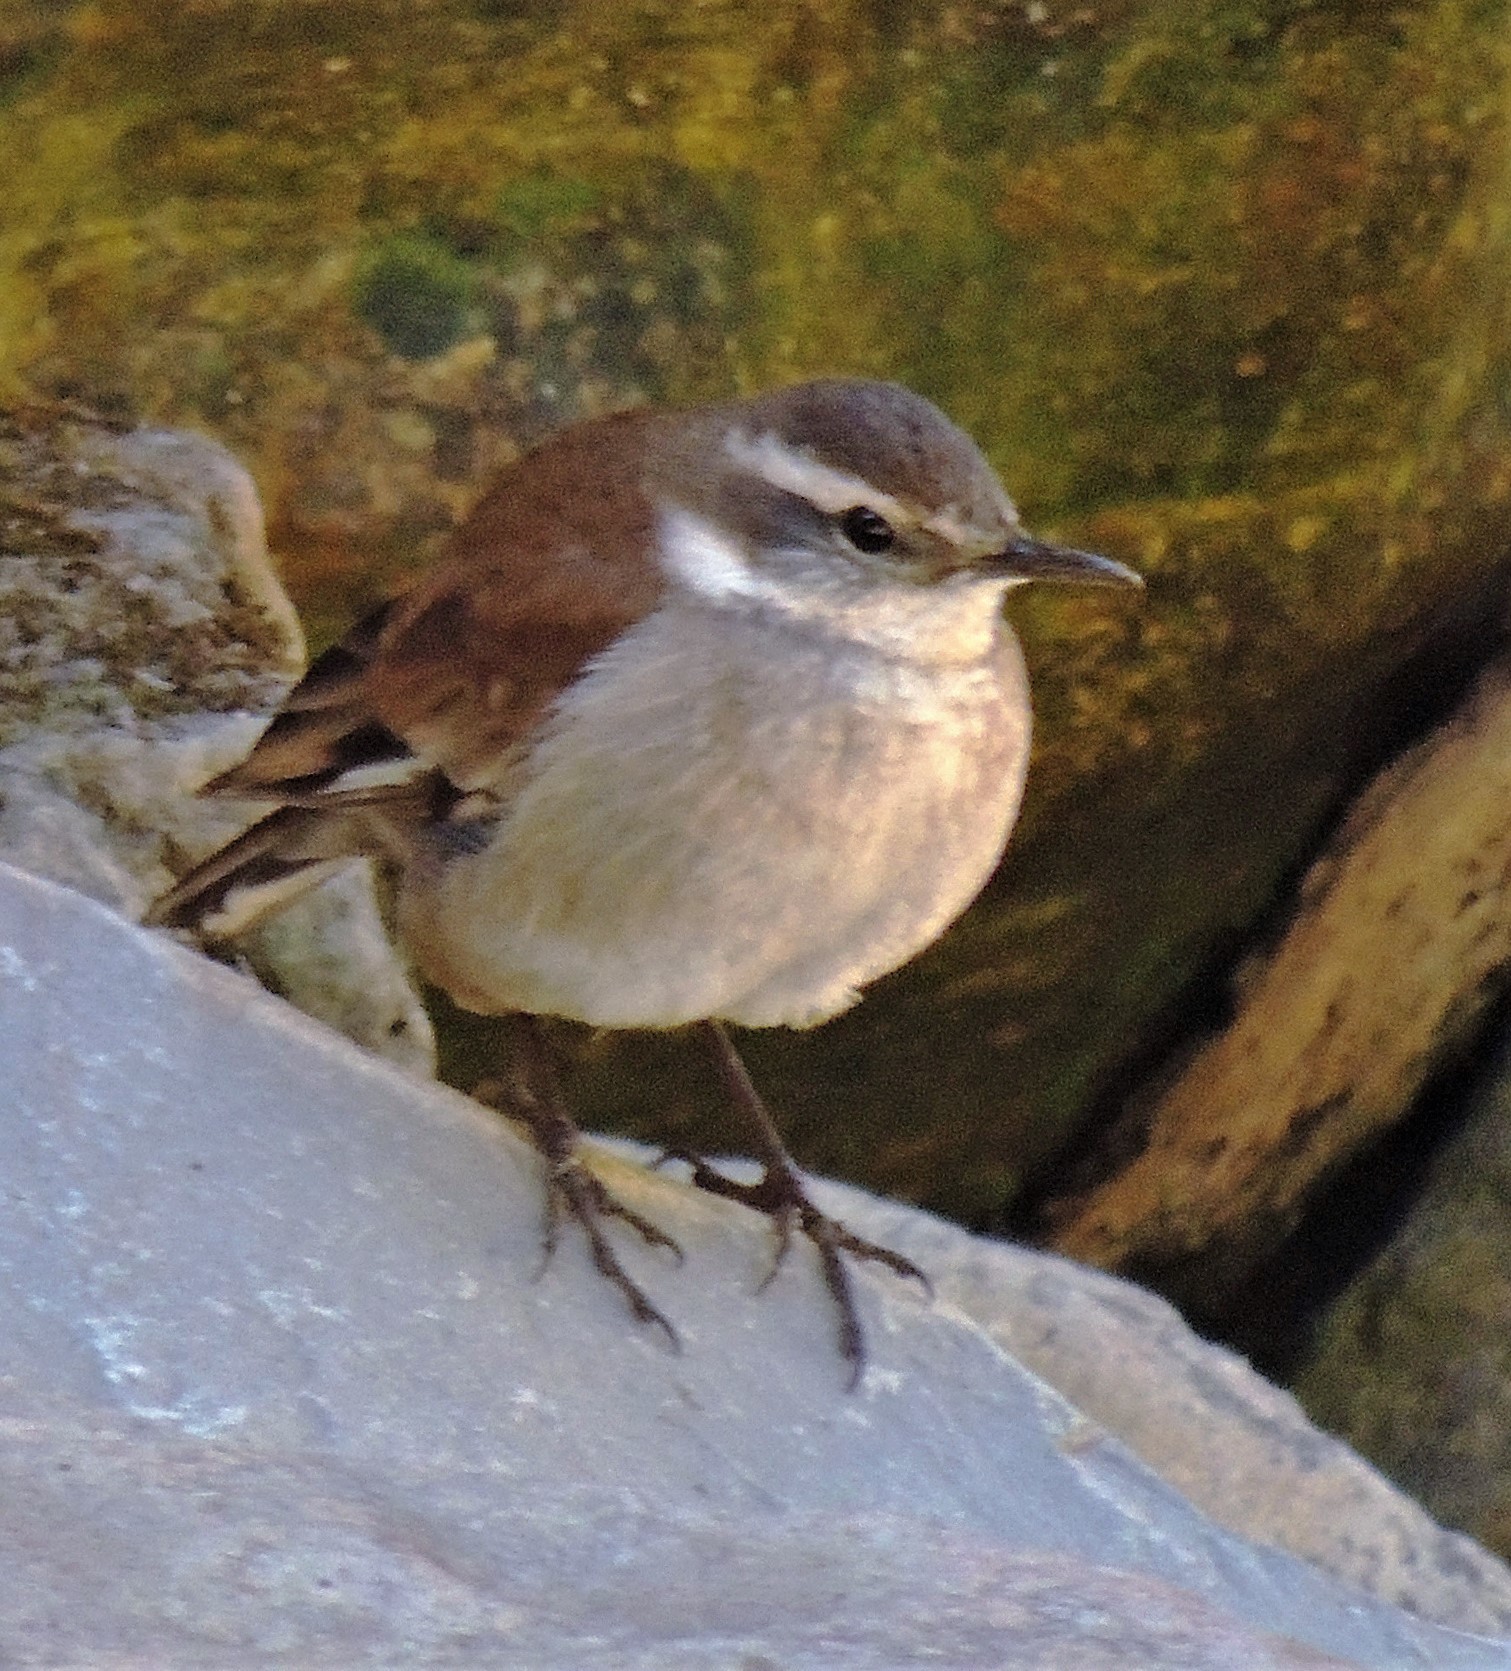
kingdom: Animalia
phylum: Chordata
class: Aves
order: Passeriformes
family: Furnariidae
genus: Cinclodes
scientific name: Cinclodes fuscus
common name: Buff-winged cinclodes
